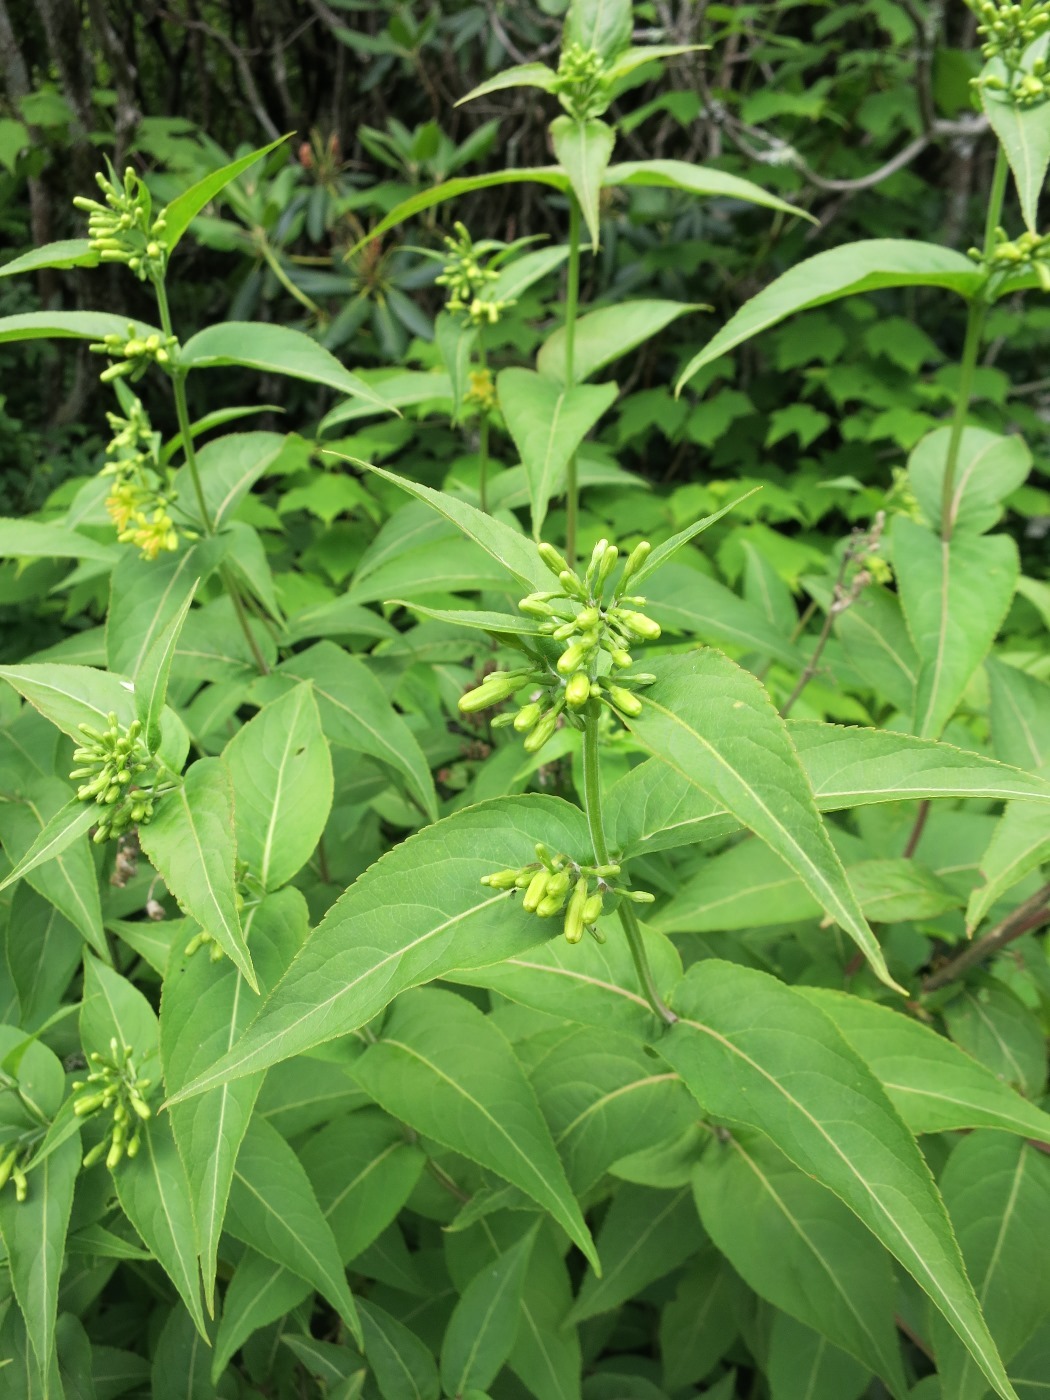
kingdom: Plantae
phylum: Tracheophyta
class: Magnoliopsida
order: Dipsacales
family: Caprifoliaceae
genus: Diervilla
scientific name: Diervilla sessilifolia
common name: Bush-honeysuckle
